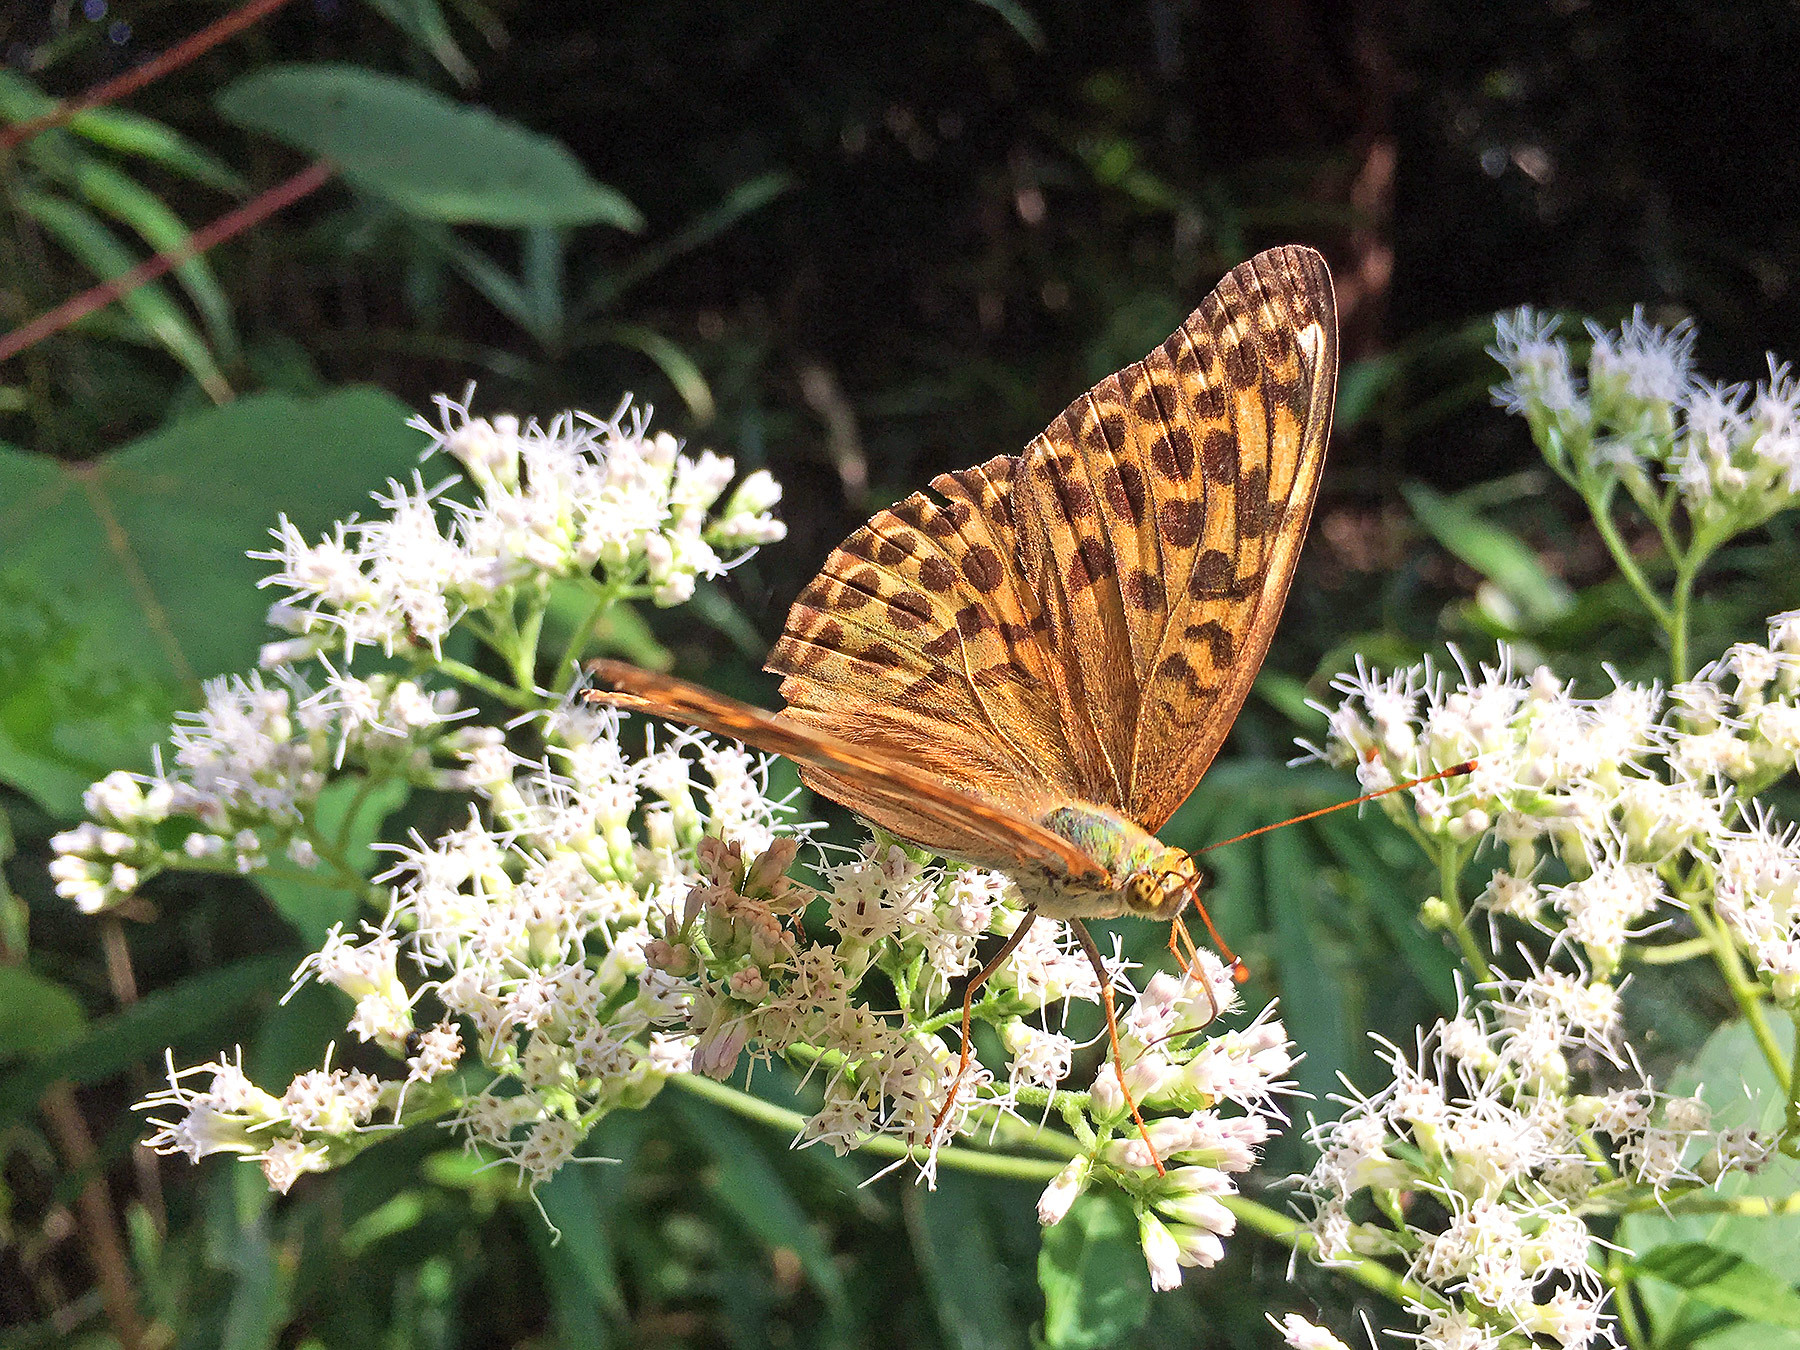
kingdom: Animalia
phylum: Arthropoda
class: Insecta
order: Lepidoptera
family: Nymphalidae
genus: Argynnis
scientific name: Argynnis paphia
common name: Silver-washed fritillary
